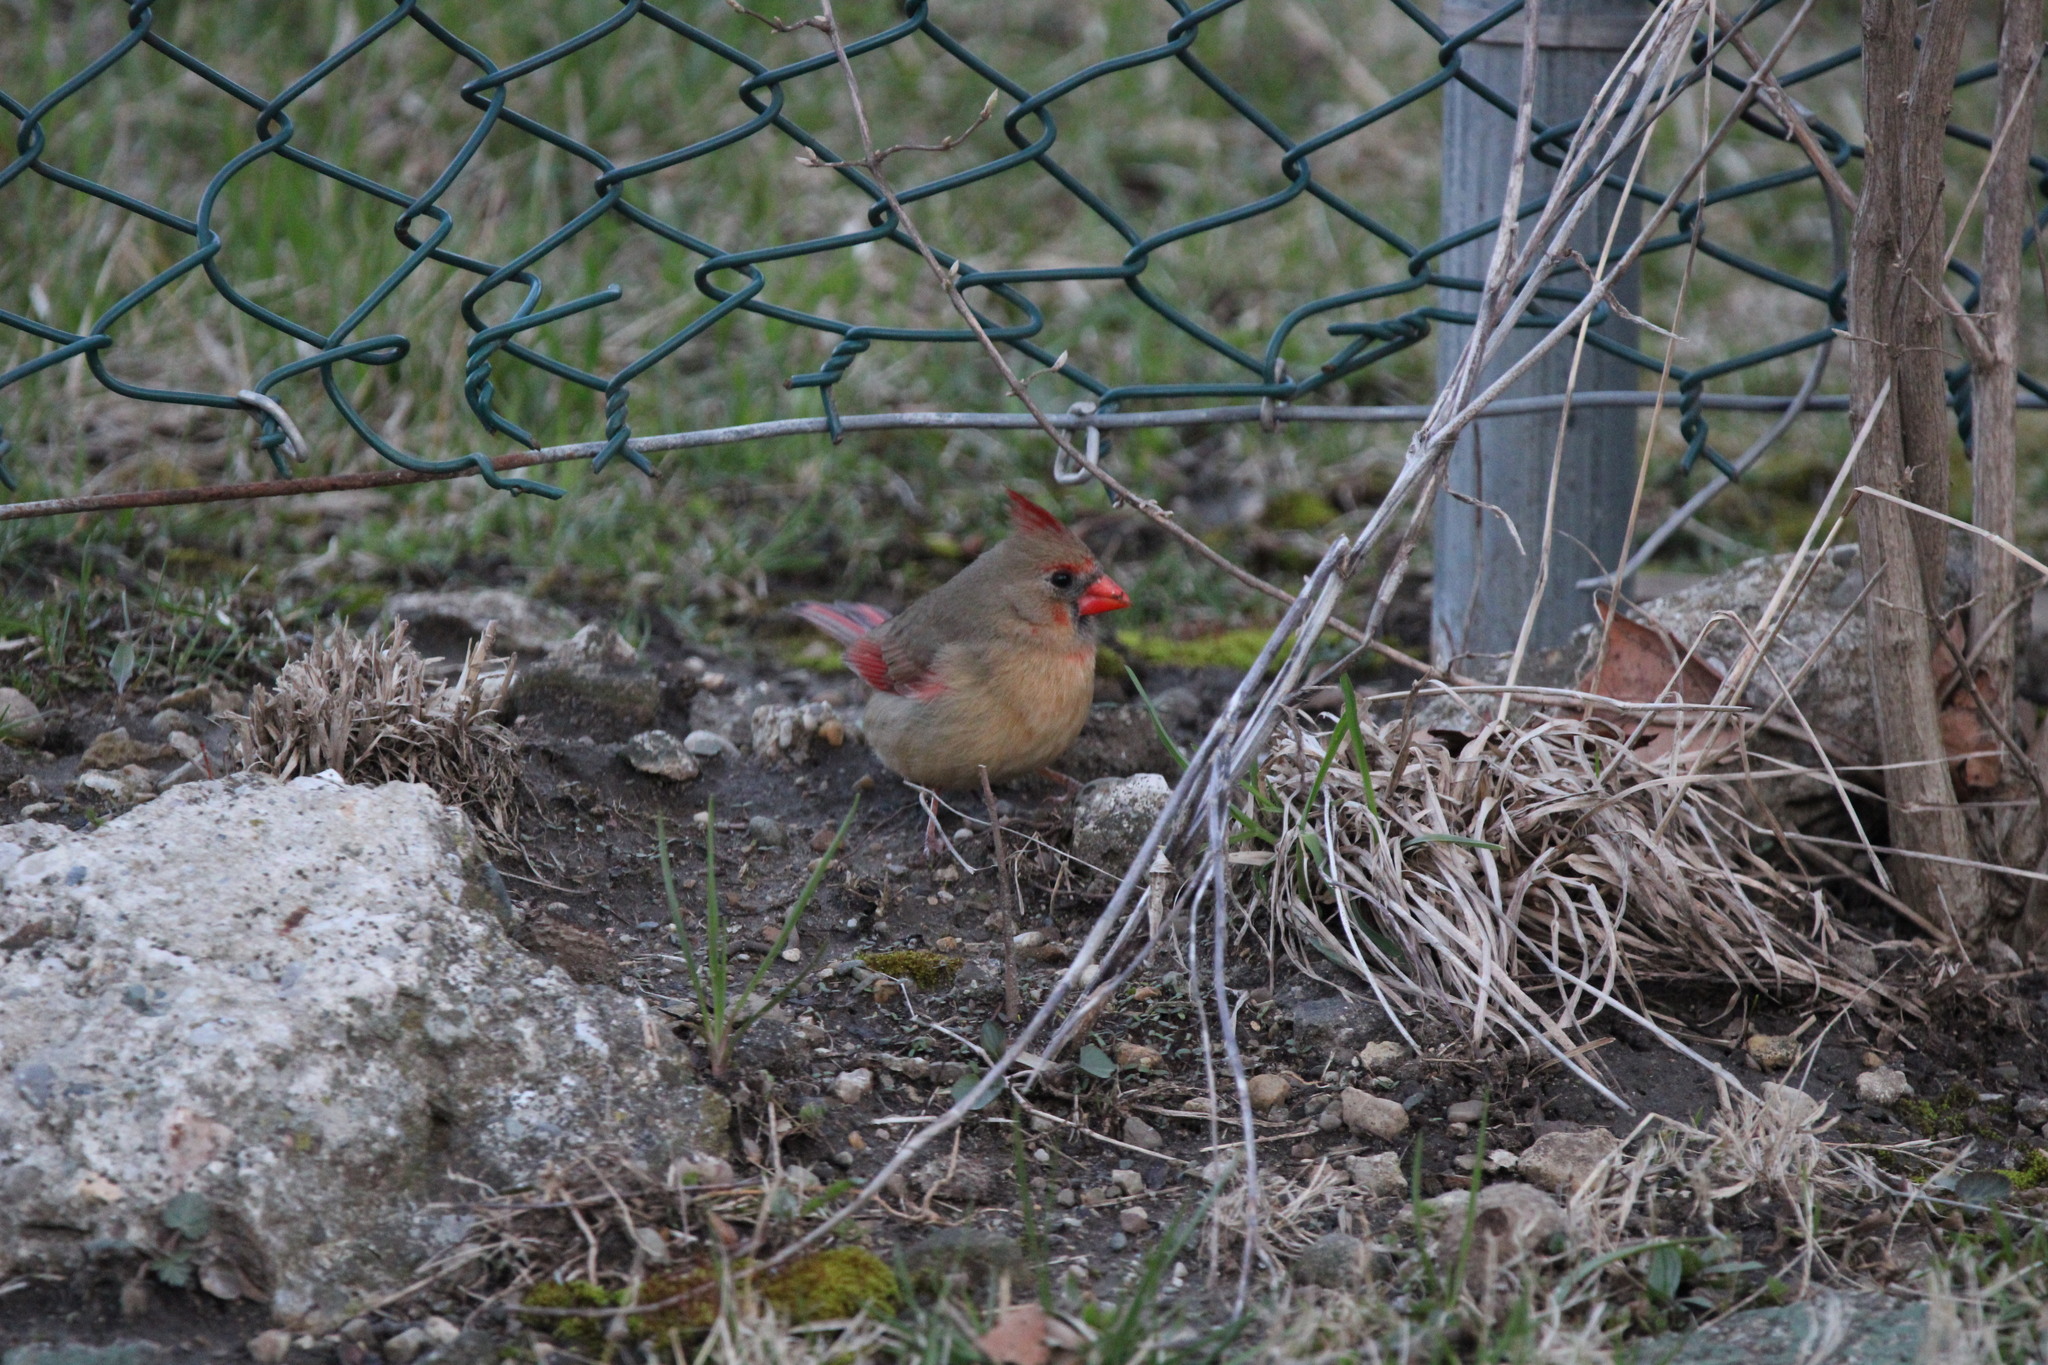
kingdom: Animalia
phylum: Chordata
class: Aves
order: Passeriformes
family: Cardinalidae
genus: Cardinalis
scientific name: Cardinalis cardinalis
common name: Northern cardinal
